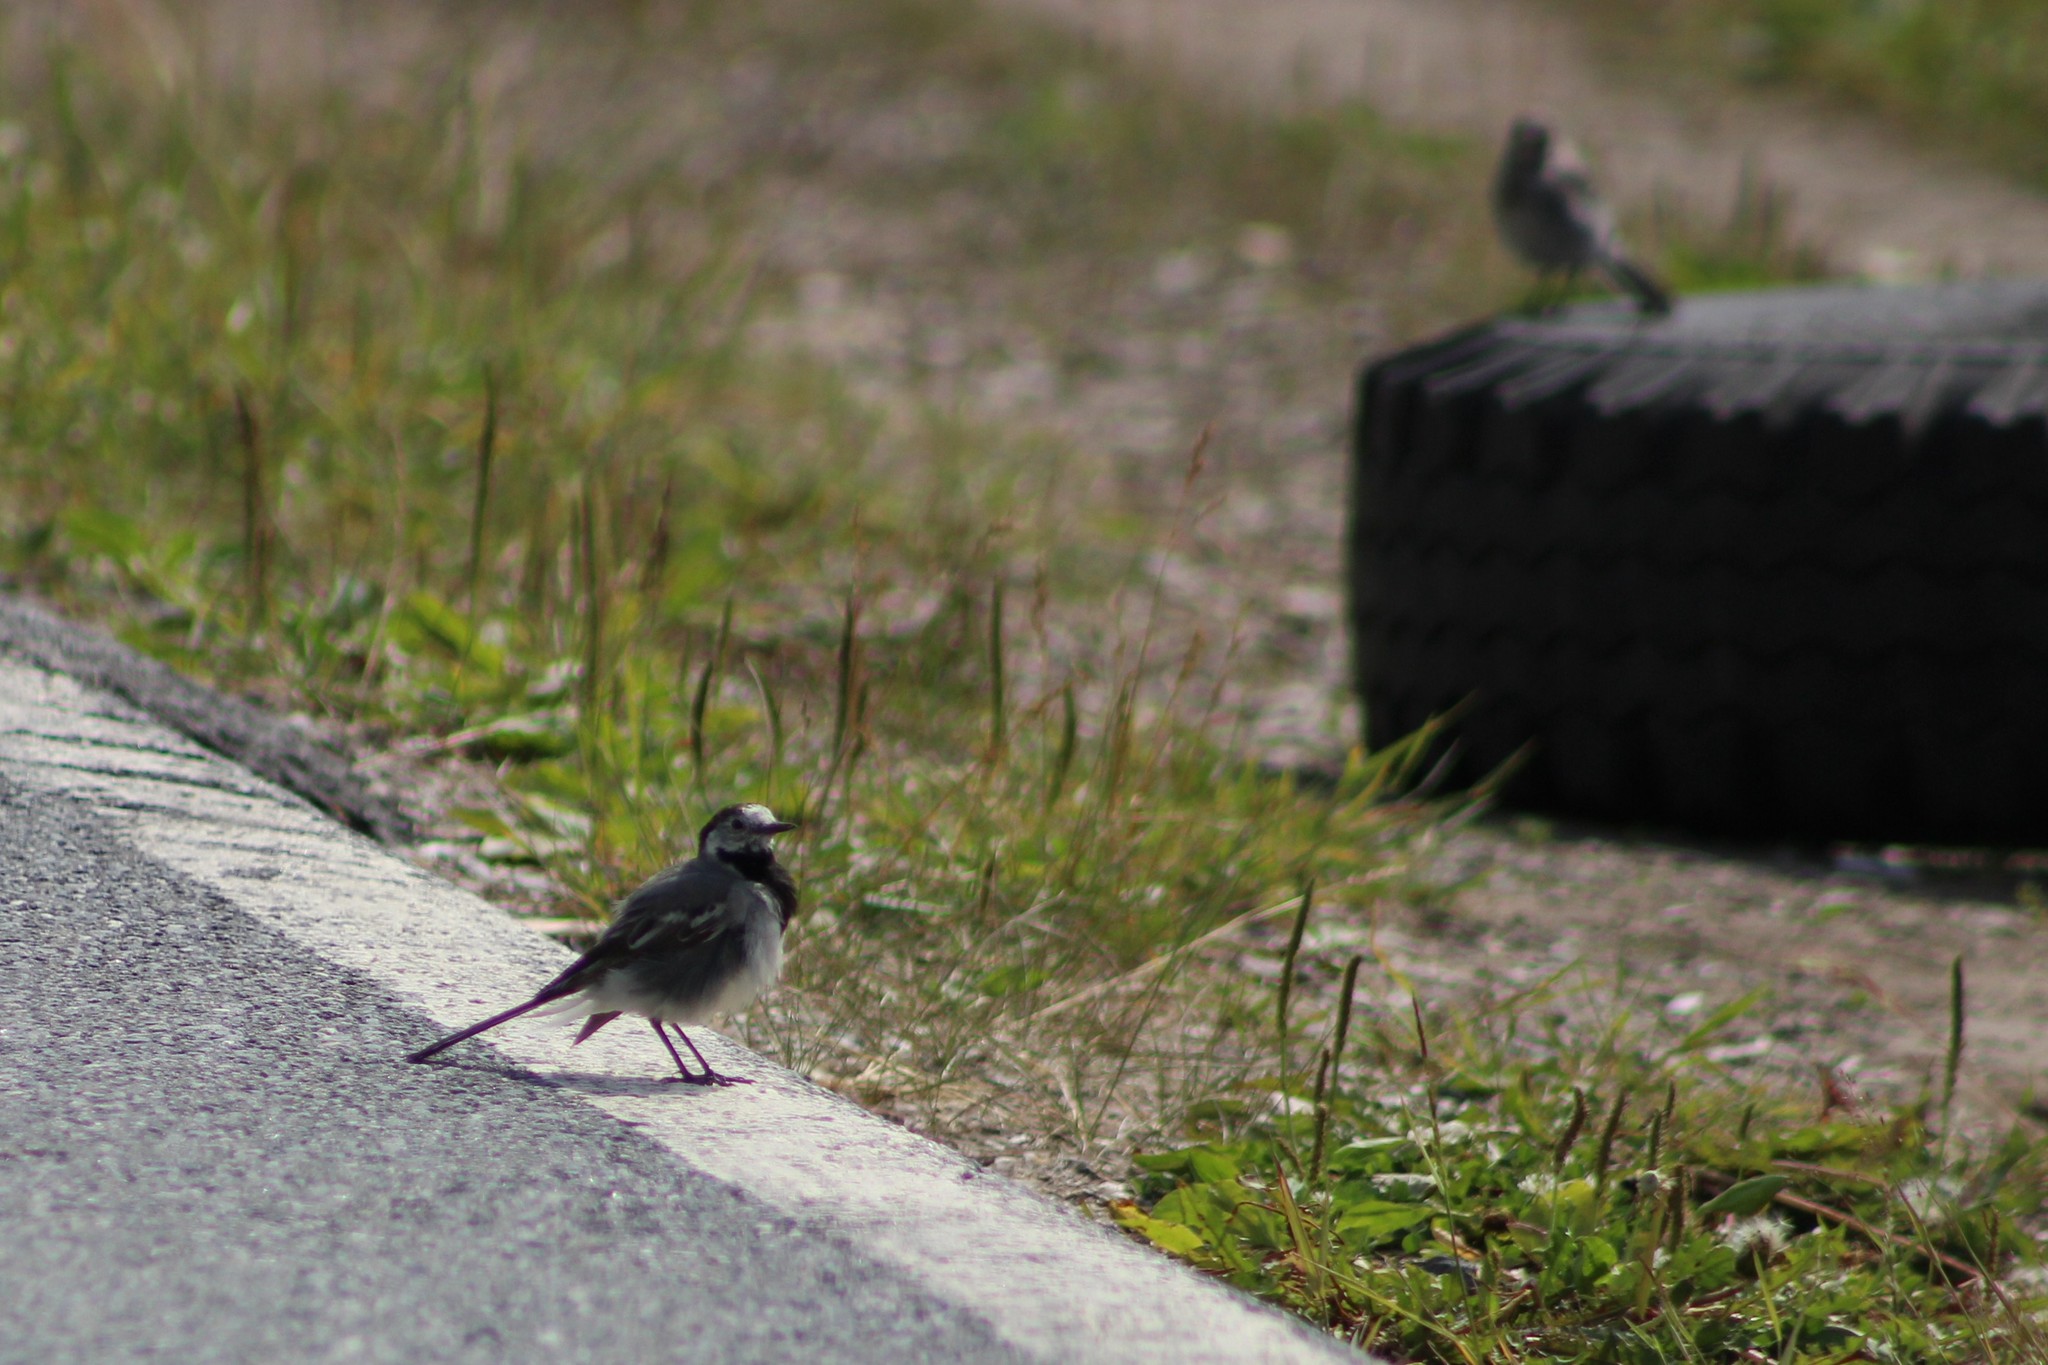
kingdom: Animalia
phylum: Chordata
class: Aves
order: Passeriformes
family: Motacillidae
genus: Motacilla
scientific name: Motacilla alba
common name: White wagtail
